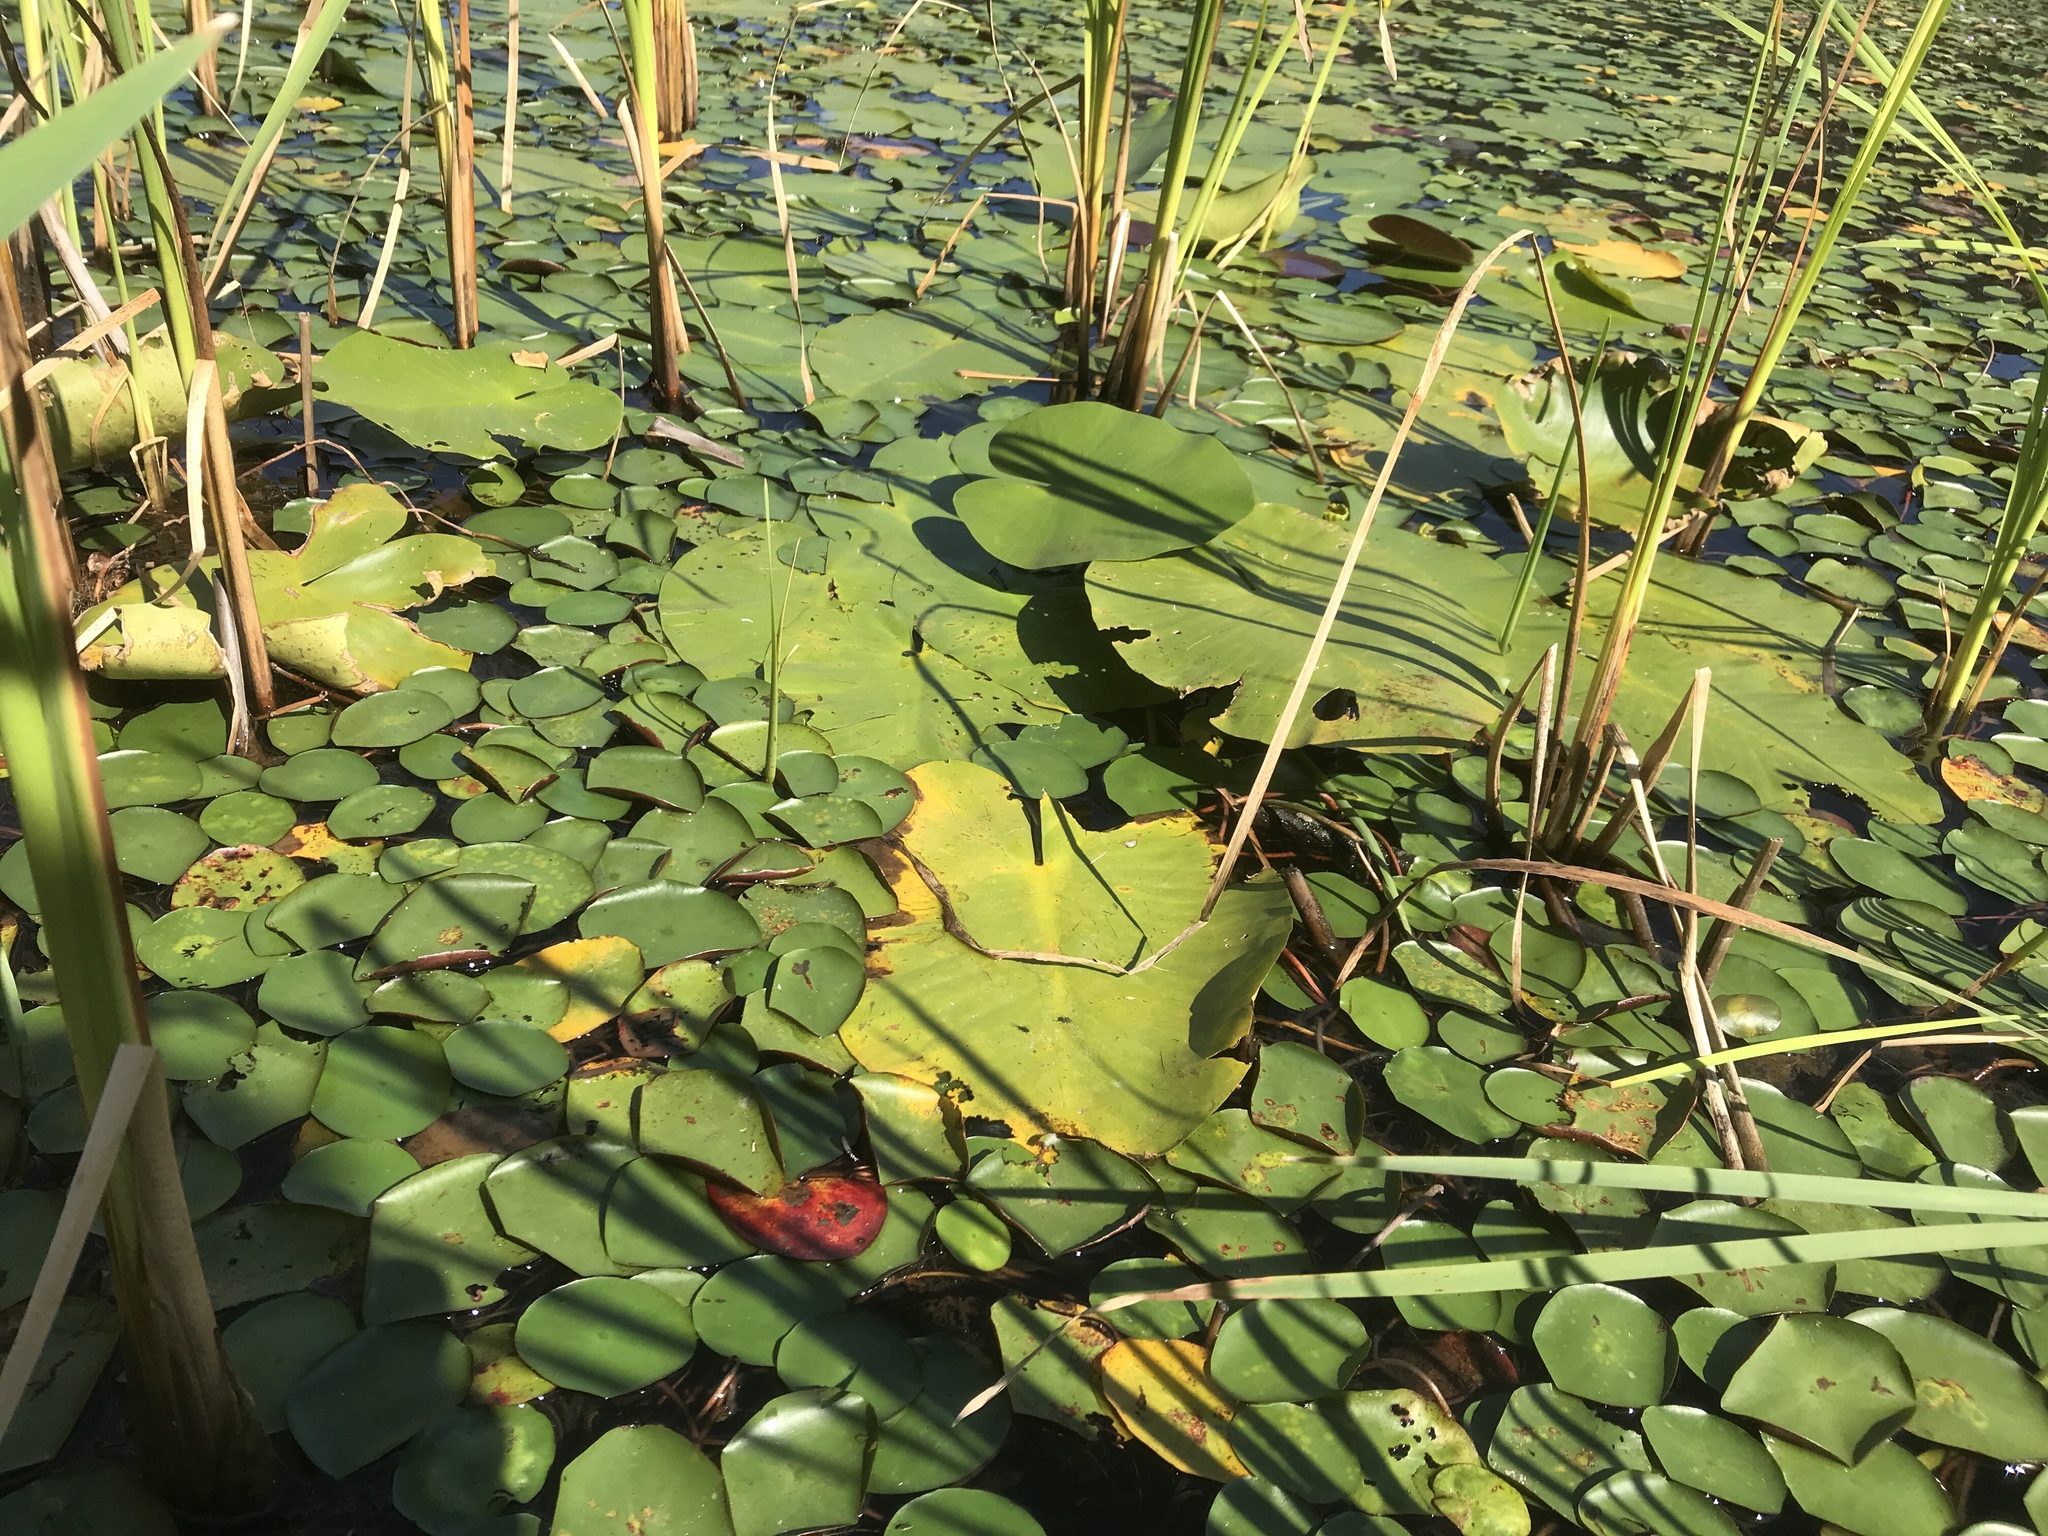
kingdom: Plantae
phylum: Tracheophyta
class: Magnoliopsida
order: Nymphaeales
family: Nymphaeaceae
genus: Nuphar
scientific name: Nuphar variegata
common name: Beaver-root
